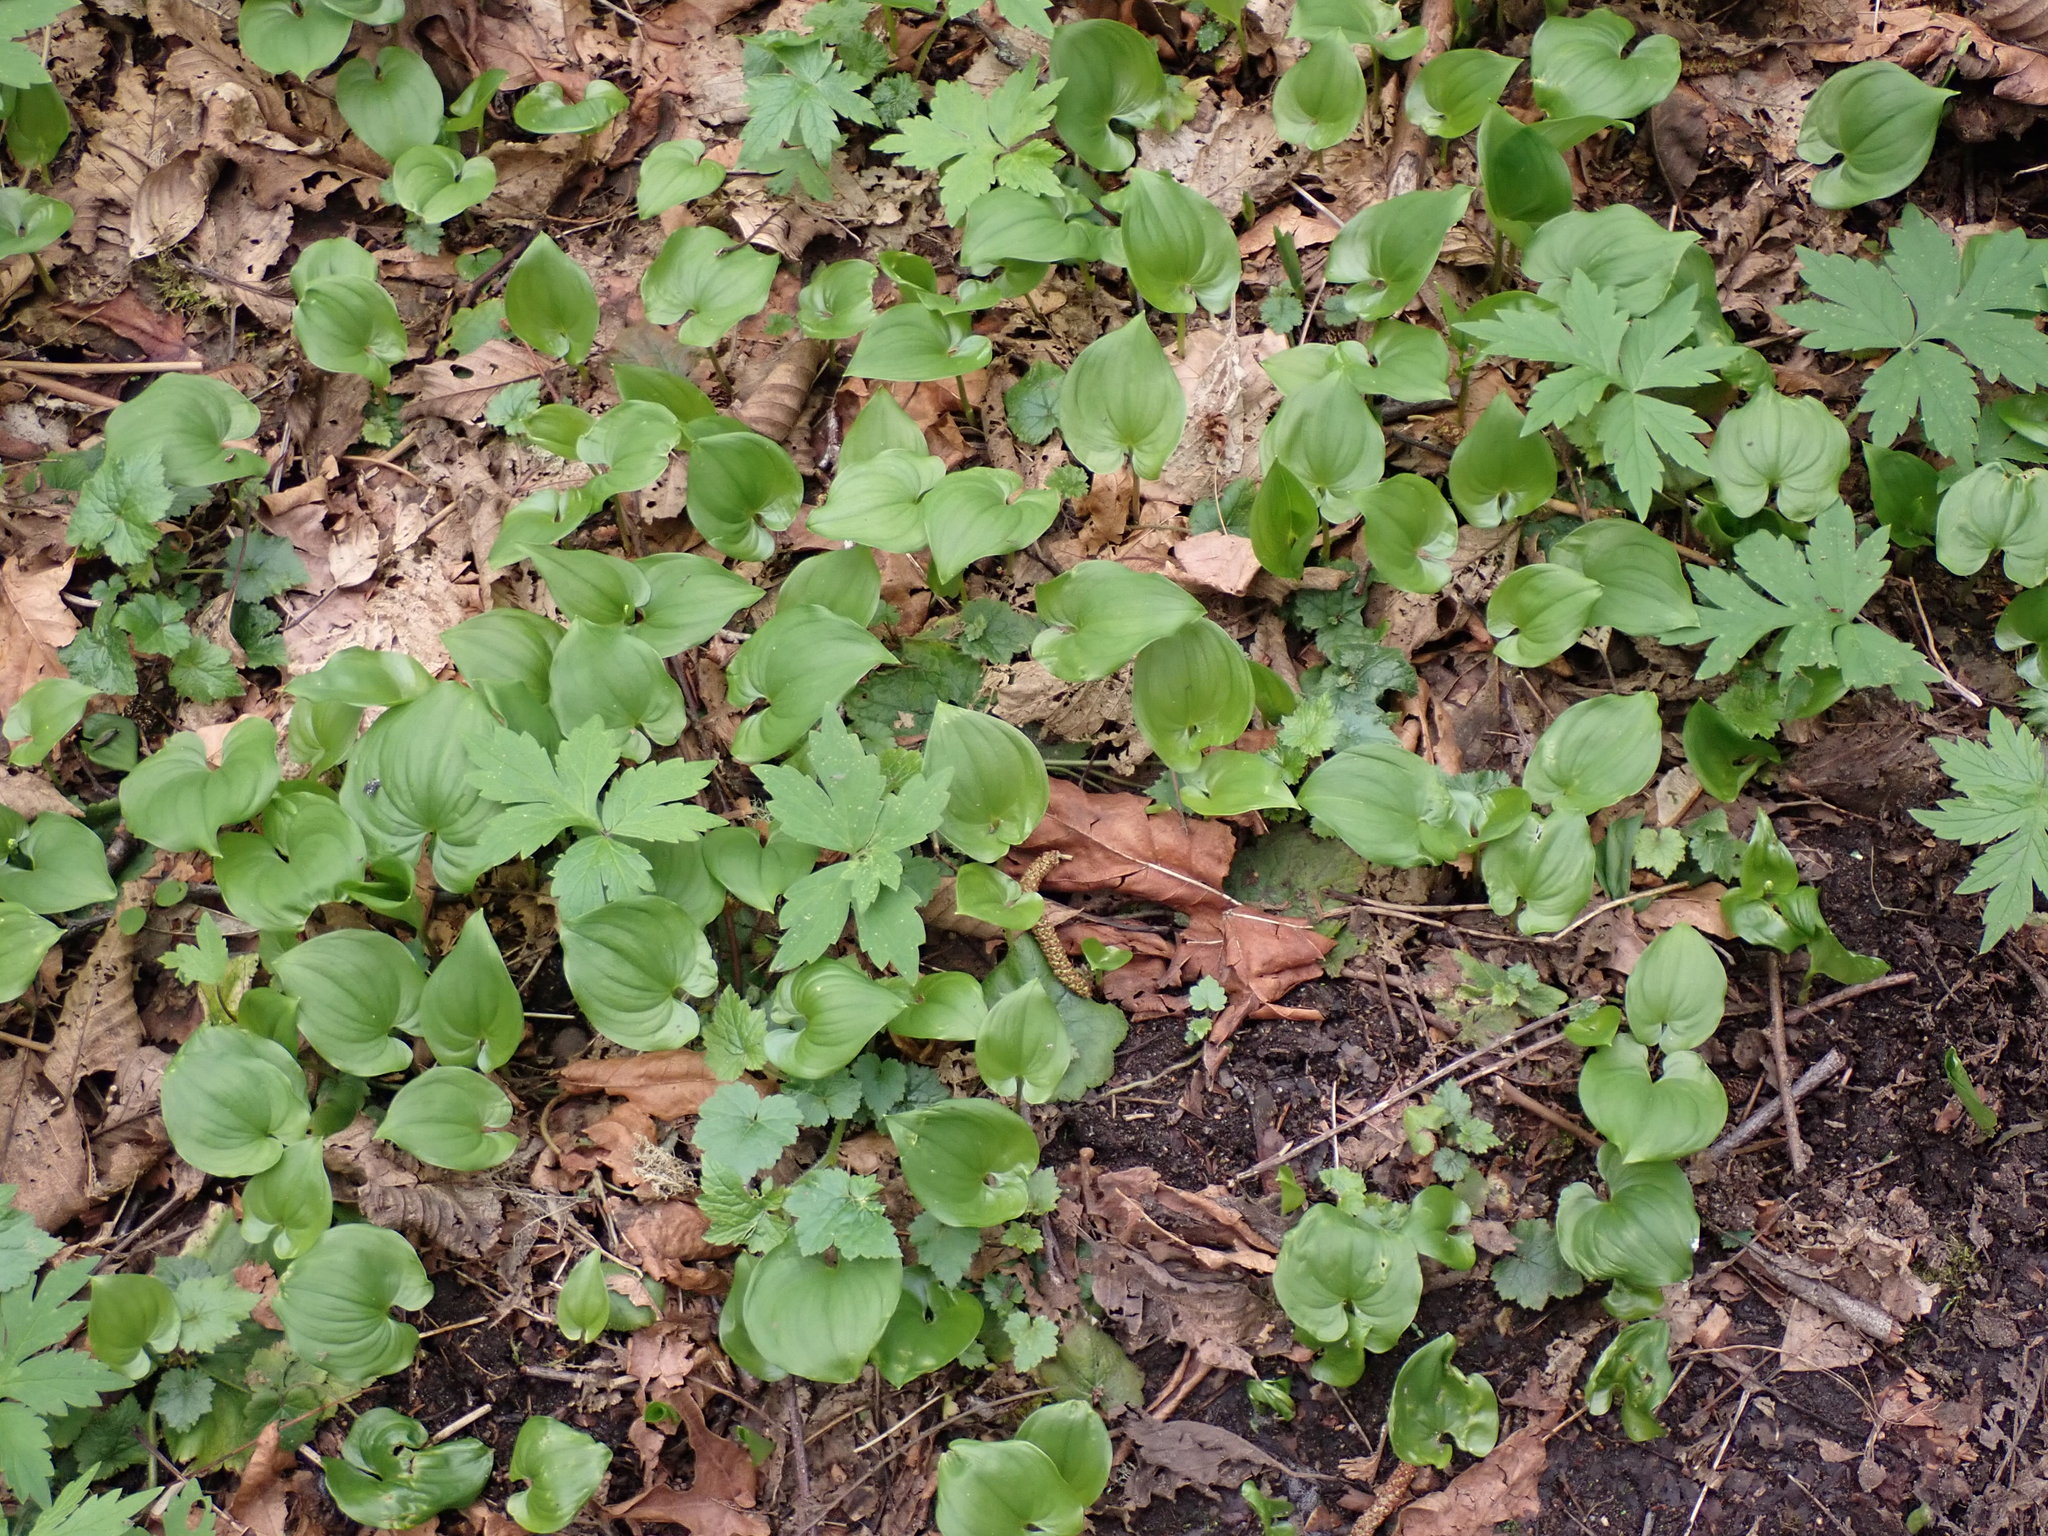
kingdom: Plantae
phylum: Tracheophyta
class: Liliopsida
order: Asparagales
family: Asparagaceae
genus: Maianthemum
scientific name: Maianthemum dilatatum
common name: False lily-of-the-valley
